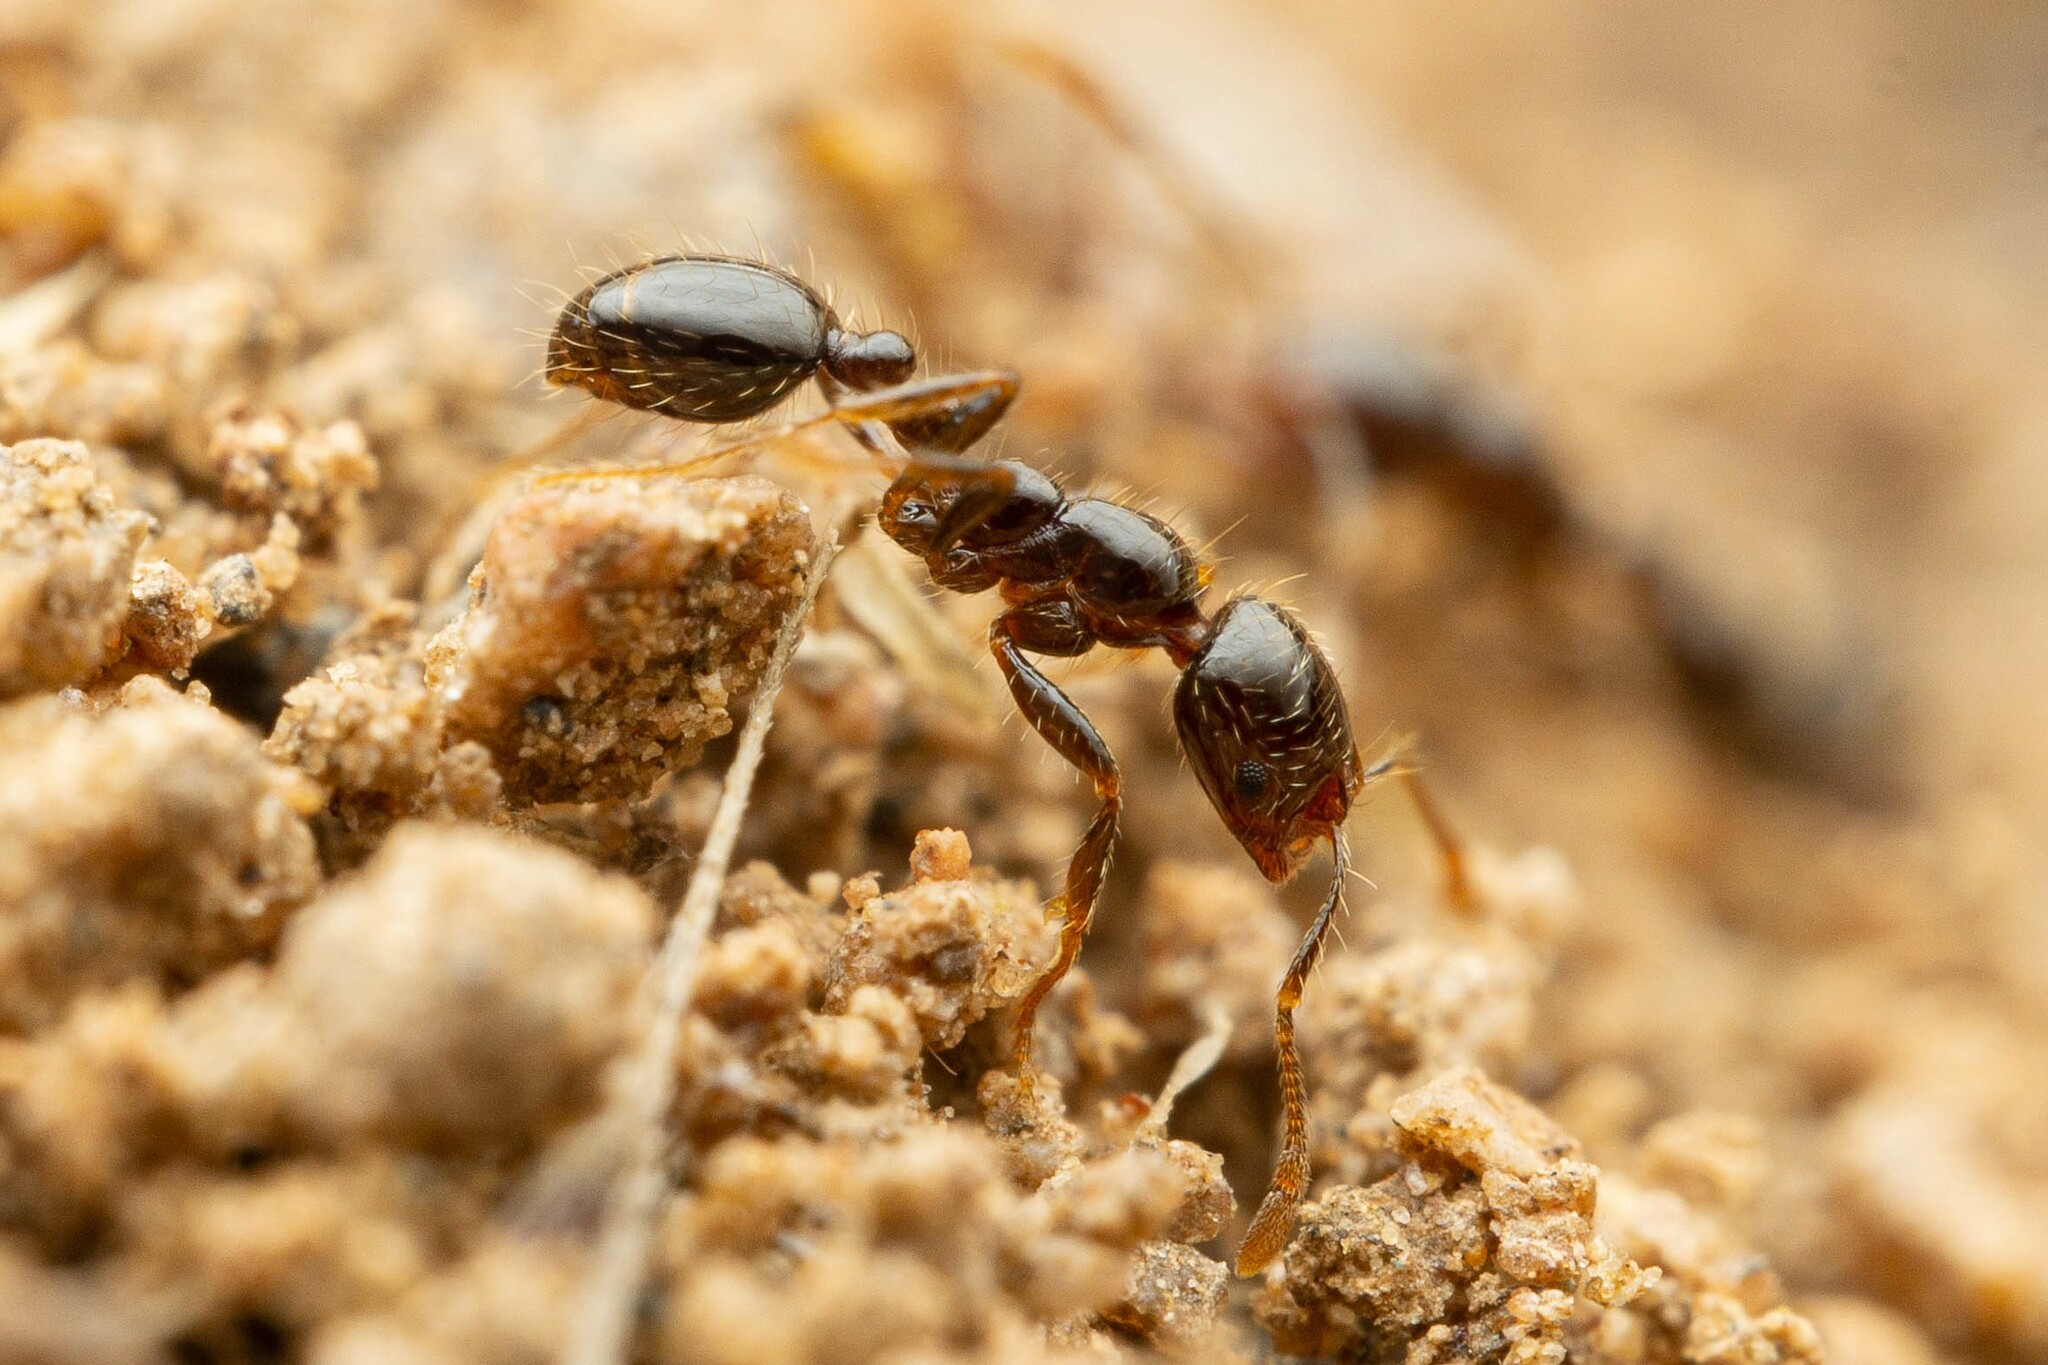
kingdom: Animalia
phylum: Arthropoda
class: Insecta
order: Hymenoptera
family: Formicidae
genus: Solenopsis
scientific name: Solenopsis xyloni
